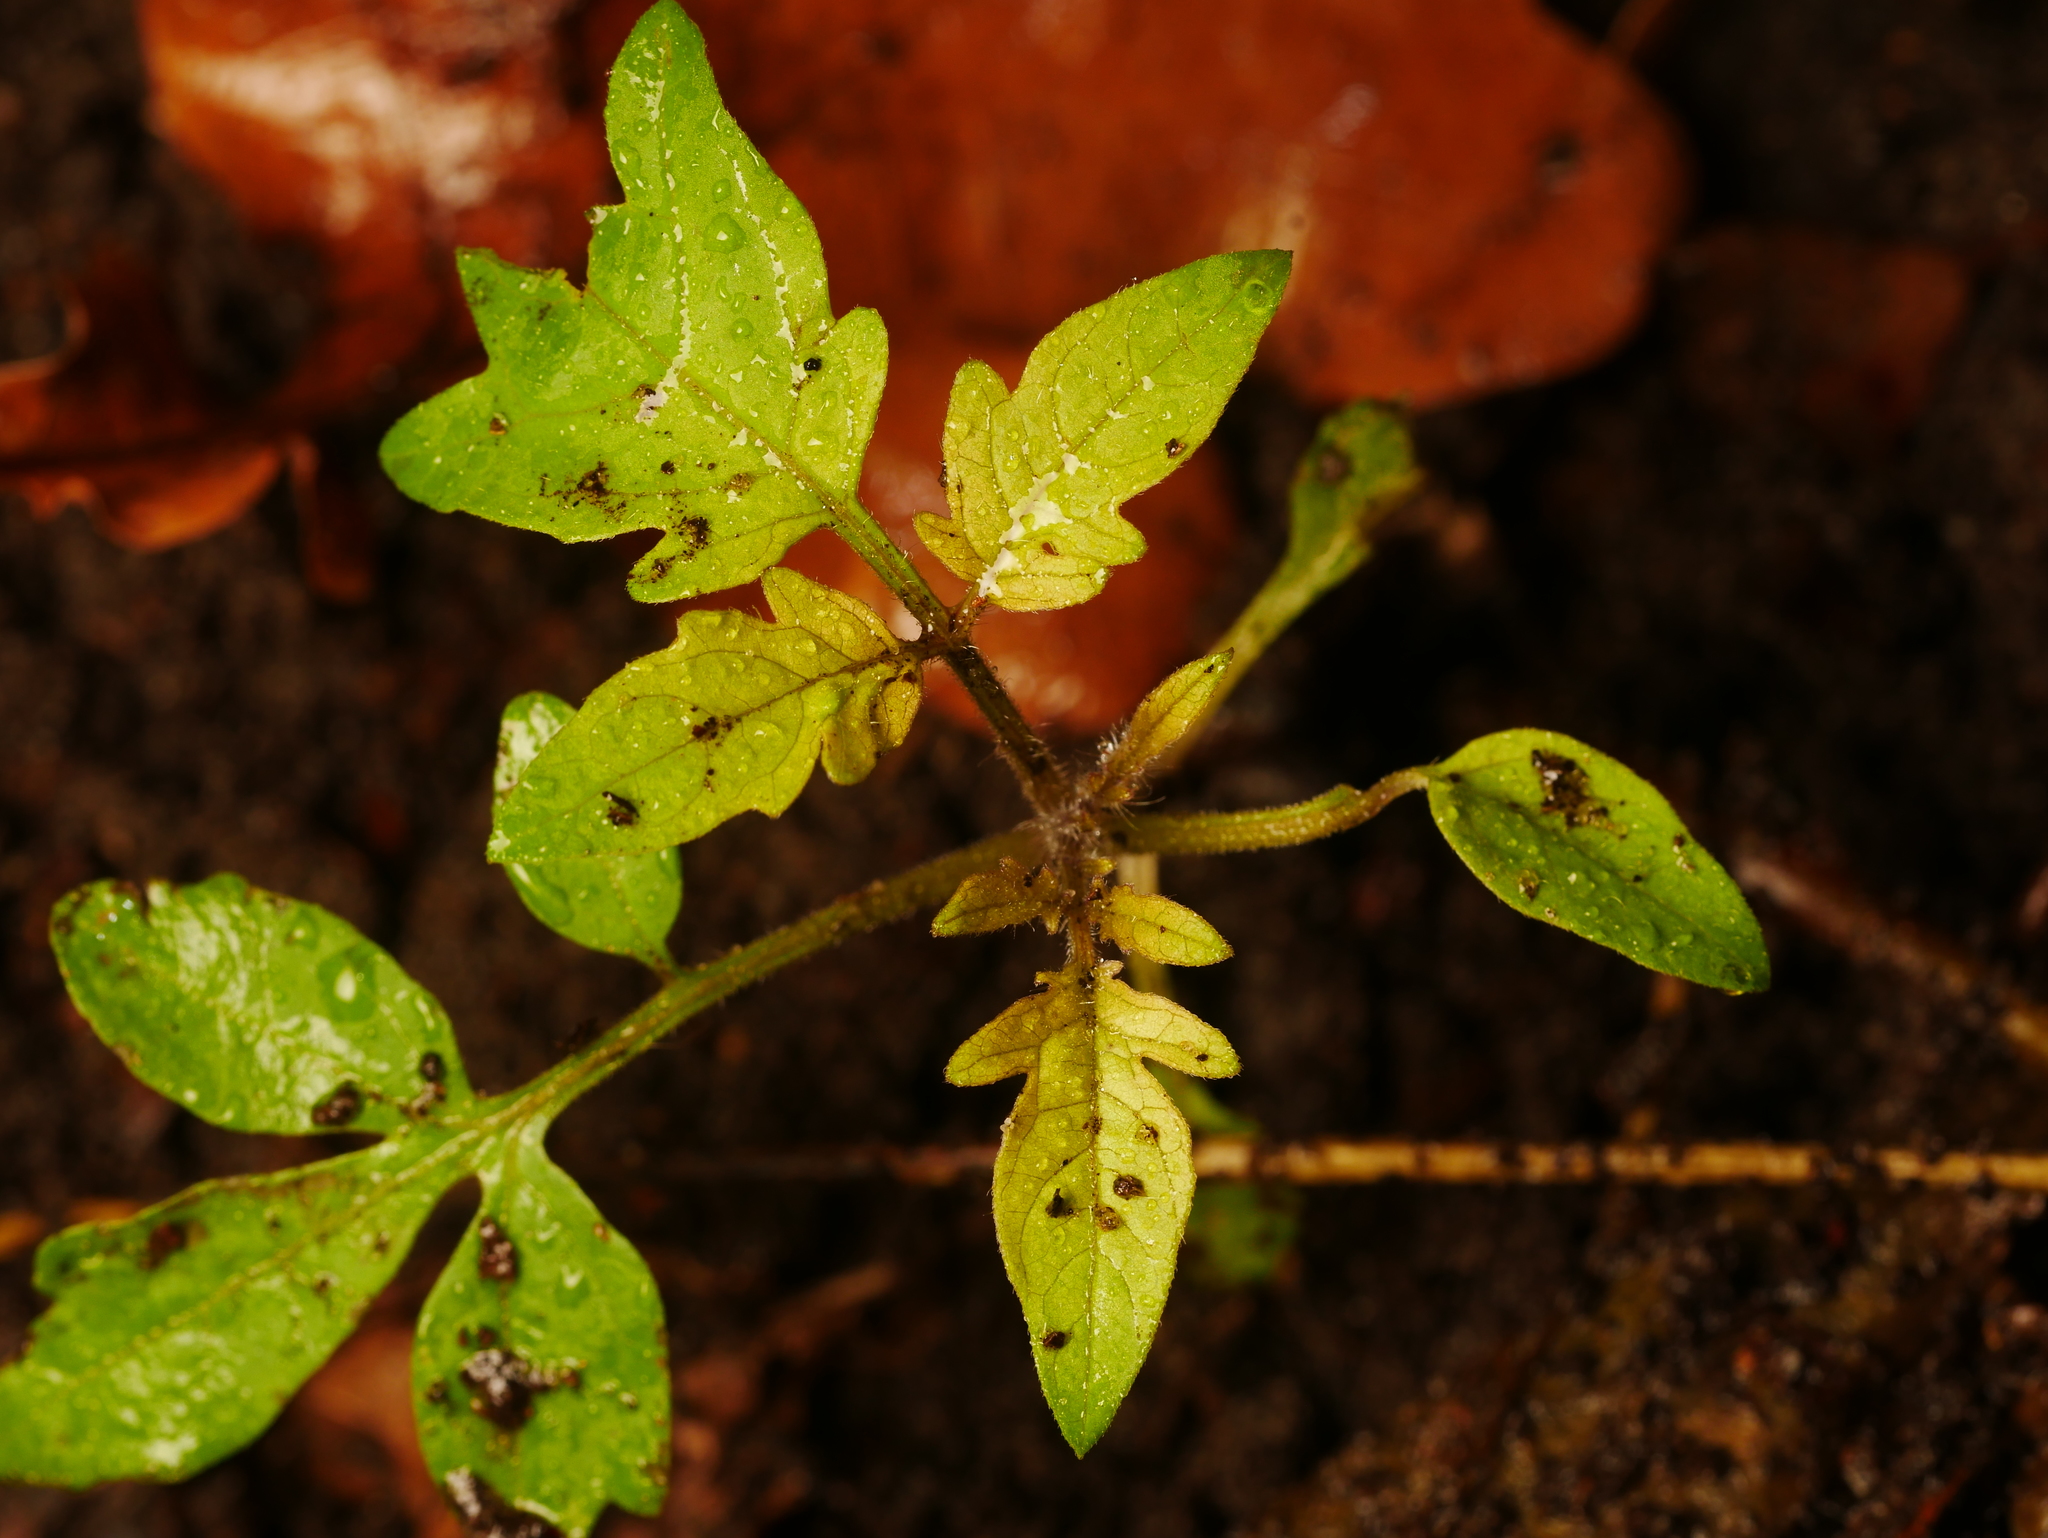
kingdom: Plantae
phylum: Tracheophyta
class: Magnoliopsida
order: Solanales
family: Solanaceae
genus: Solanum
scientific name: Solanum lycopersicum
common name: Garden tomato
